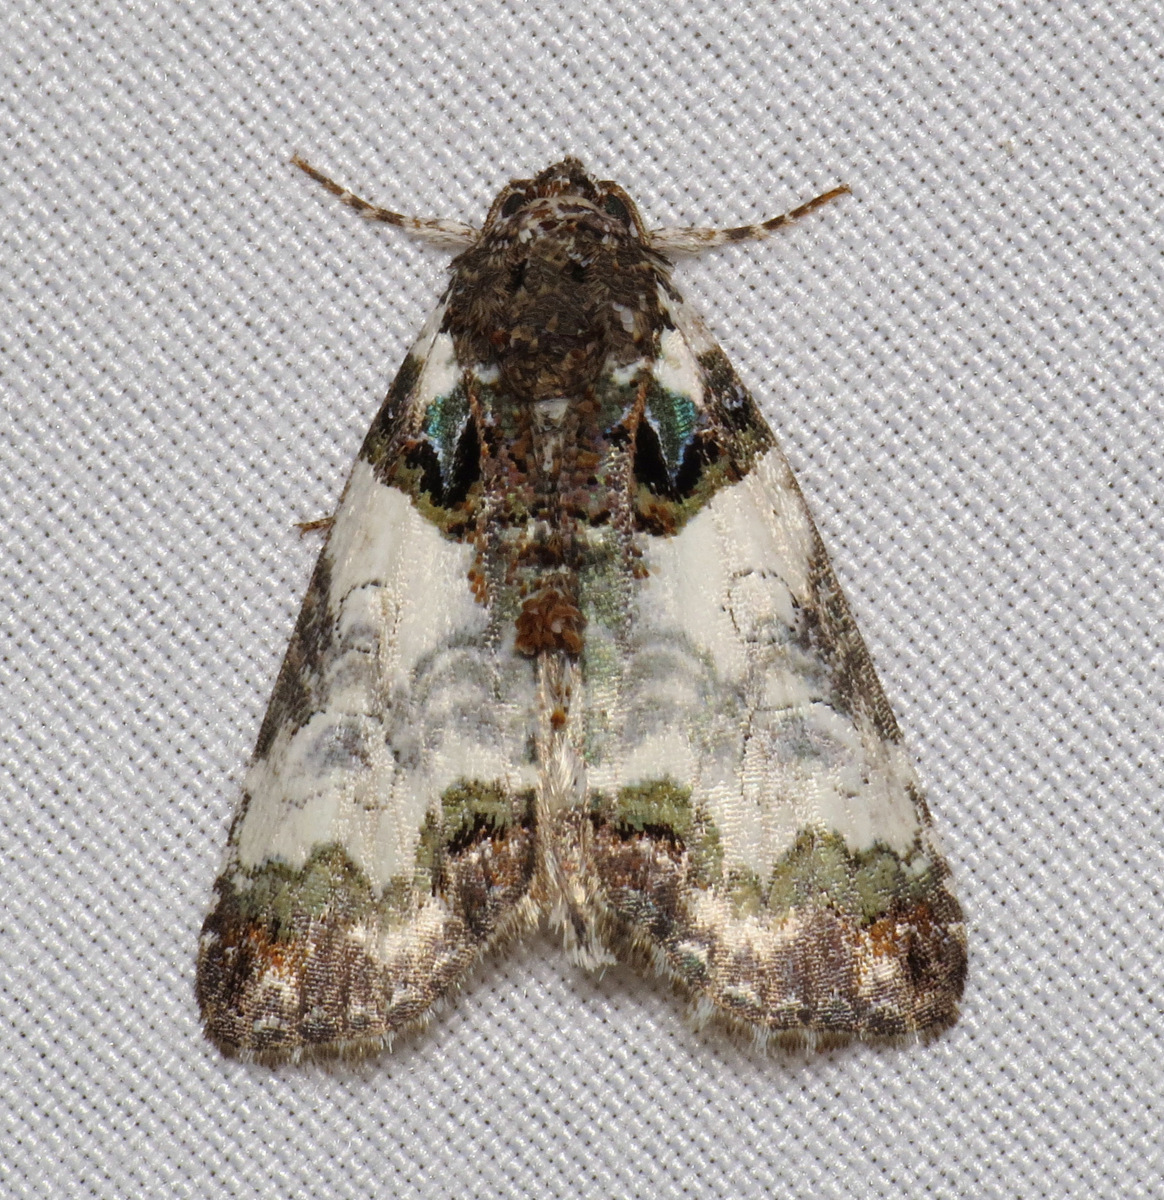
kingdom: Animalia
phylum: Arthropoda
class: Insecta
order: Lepidoptera
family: Noctuidae
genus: Cerma
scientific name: Cerma cerintha
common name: Tufted bird-dropping moth
